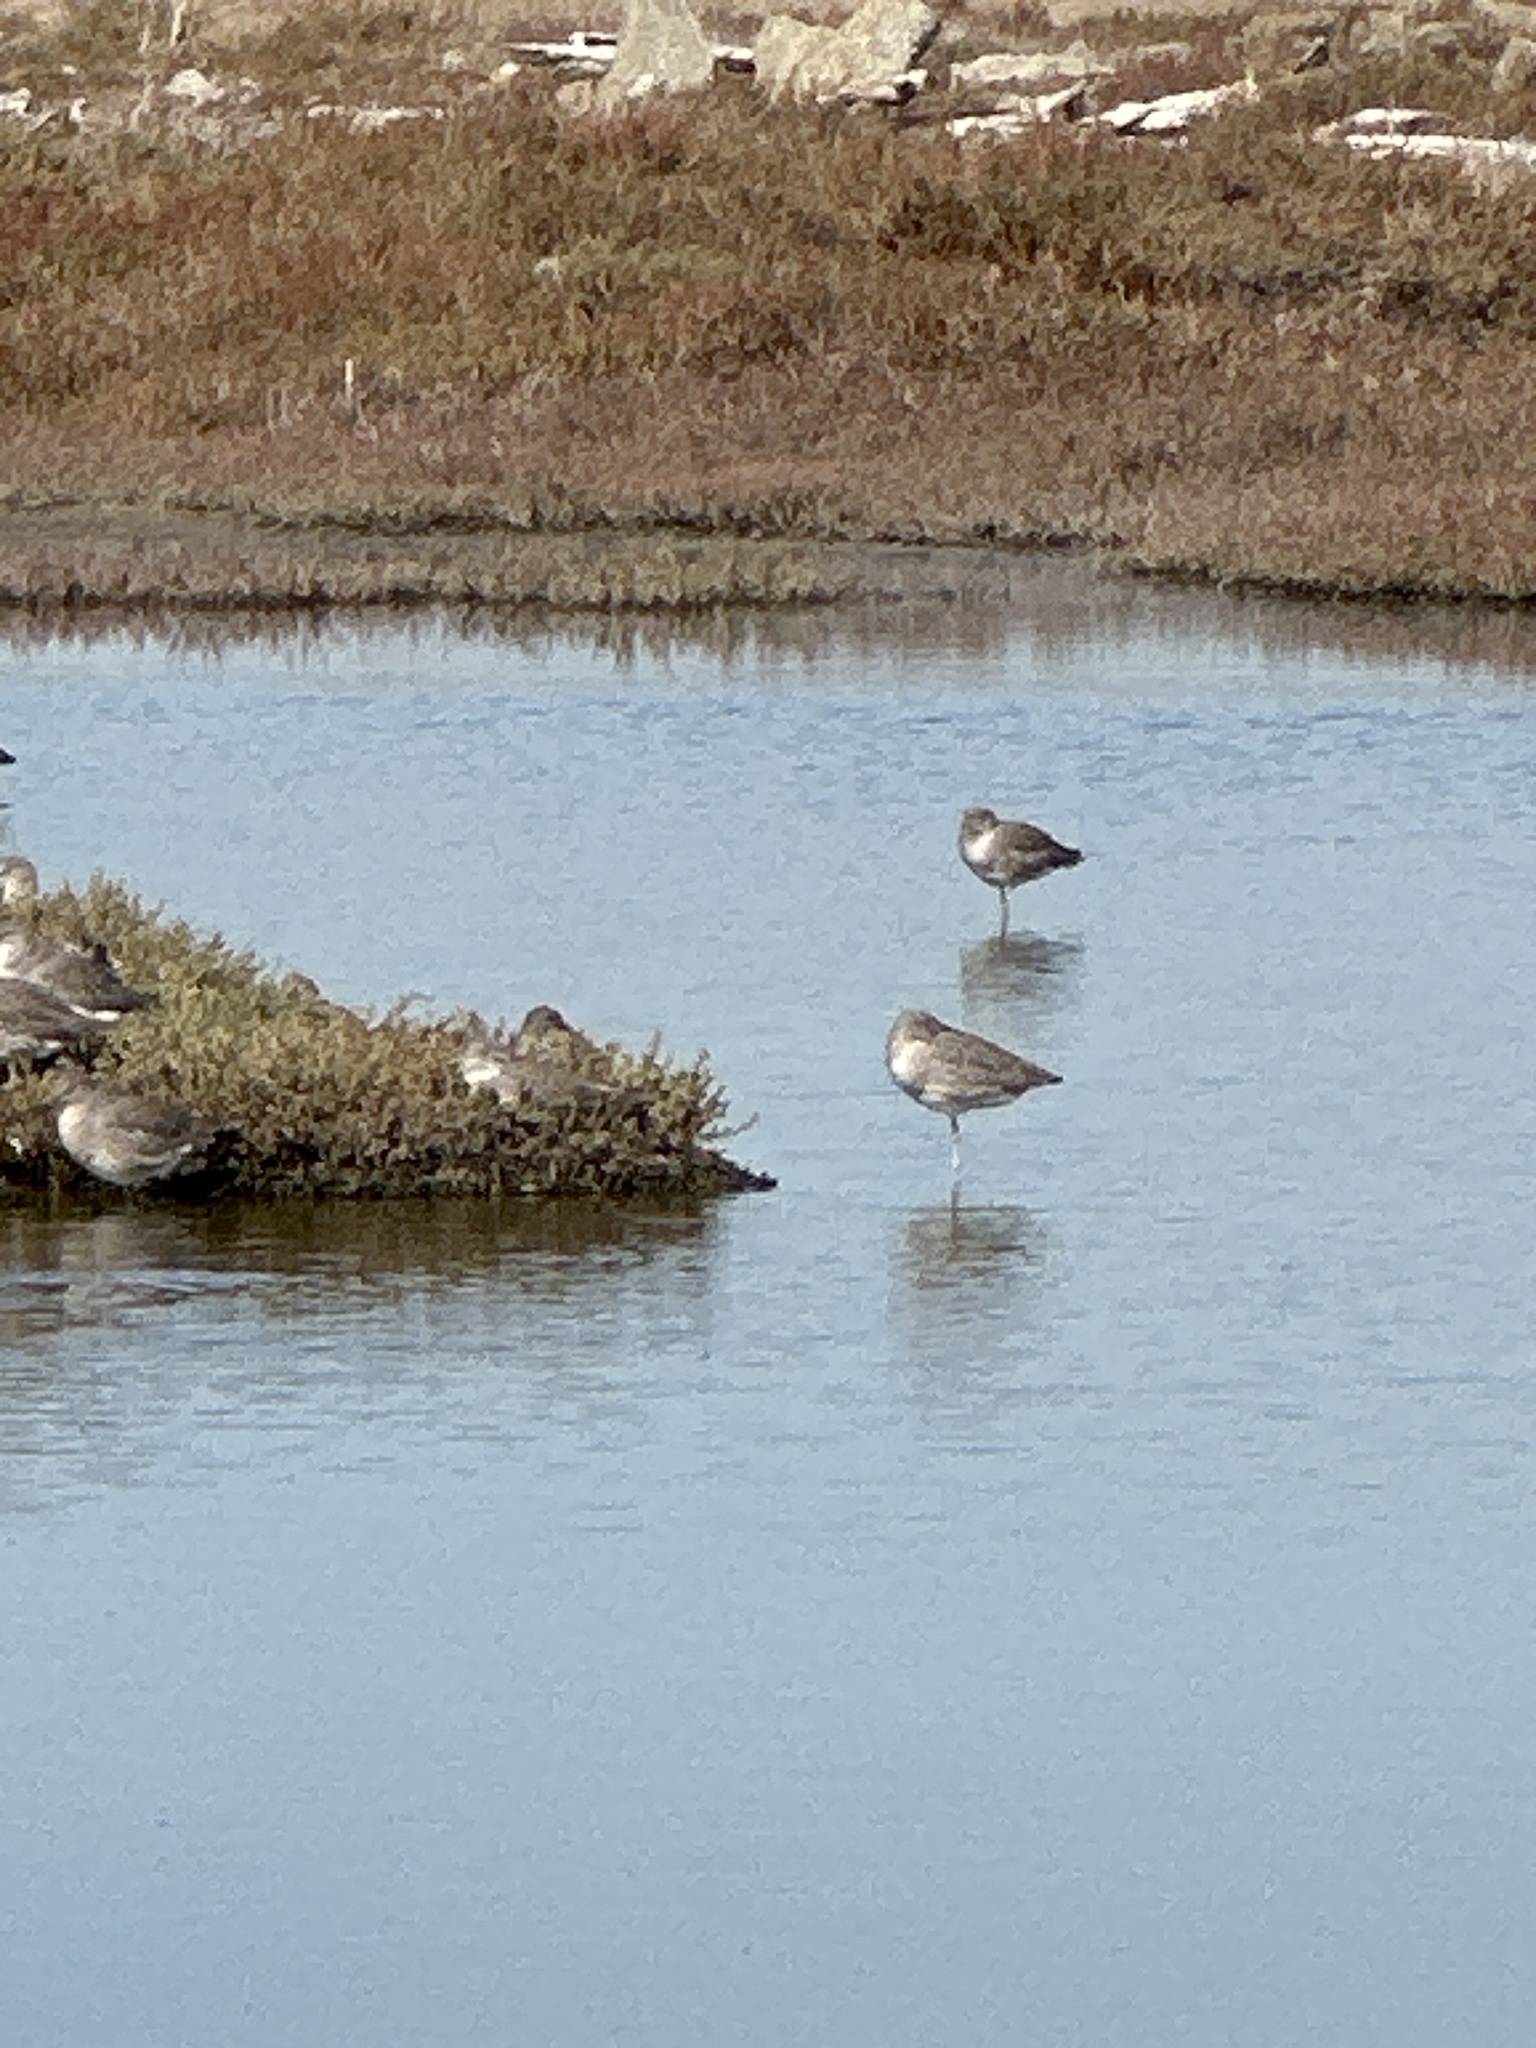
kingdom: Animalia
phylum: Chordata
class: Aves
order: Charadriiformes
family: Scolopacidae
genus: Tringa
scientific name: Tringa semipalmata
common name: Willet
